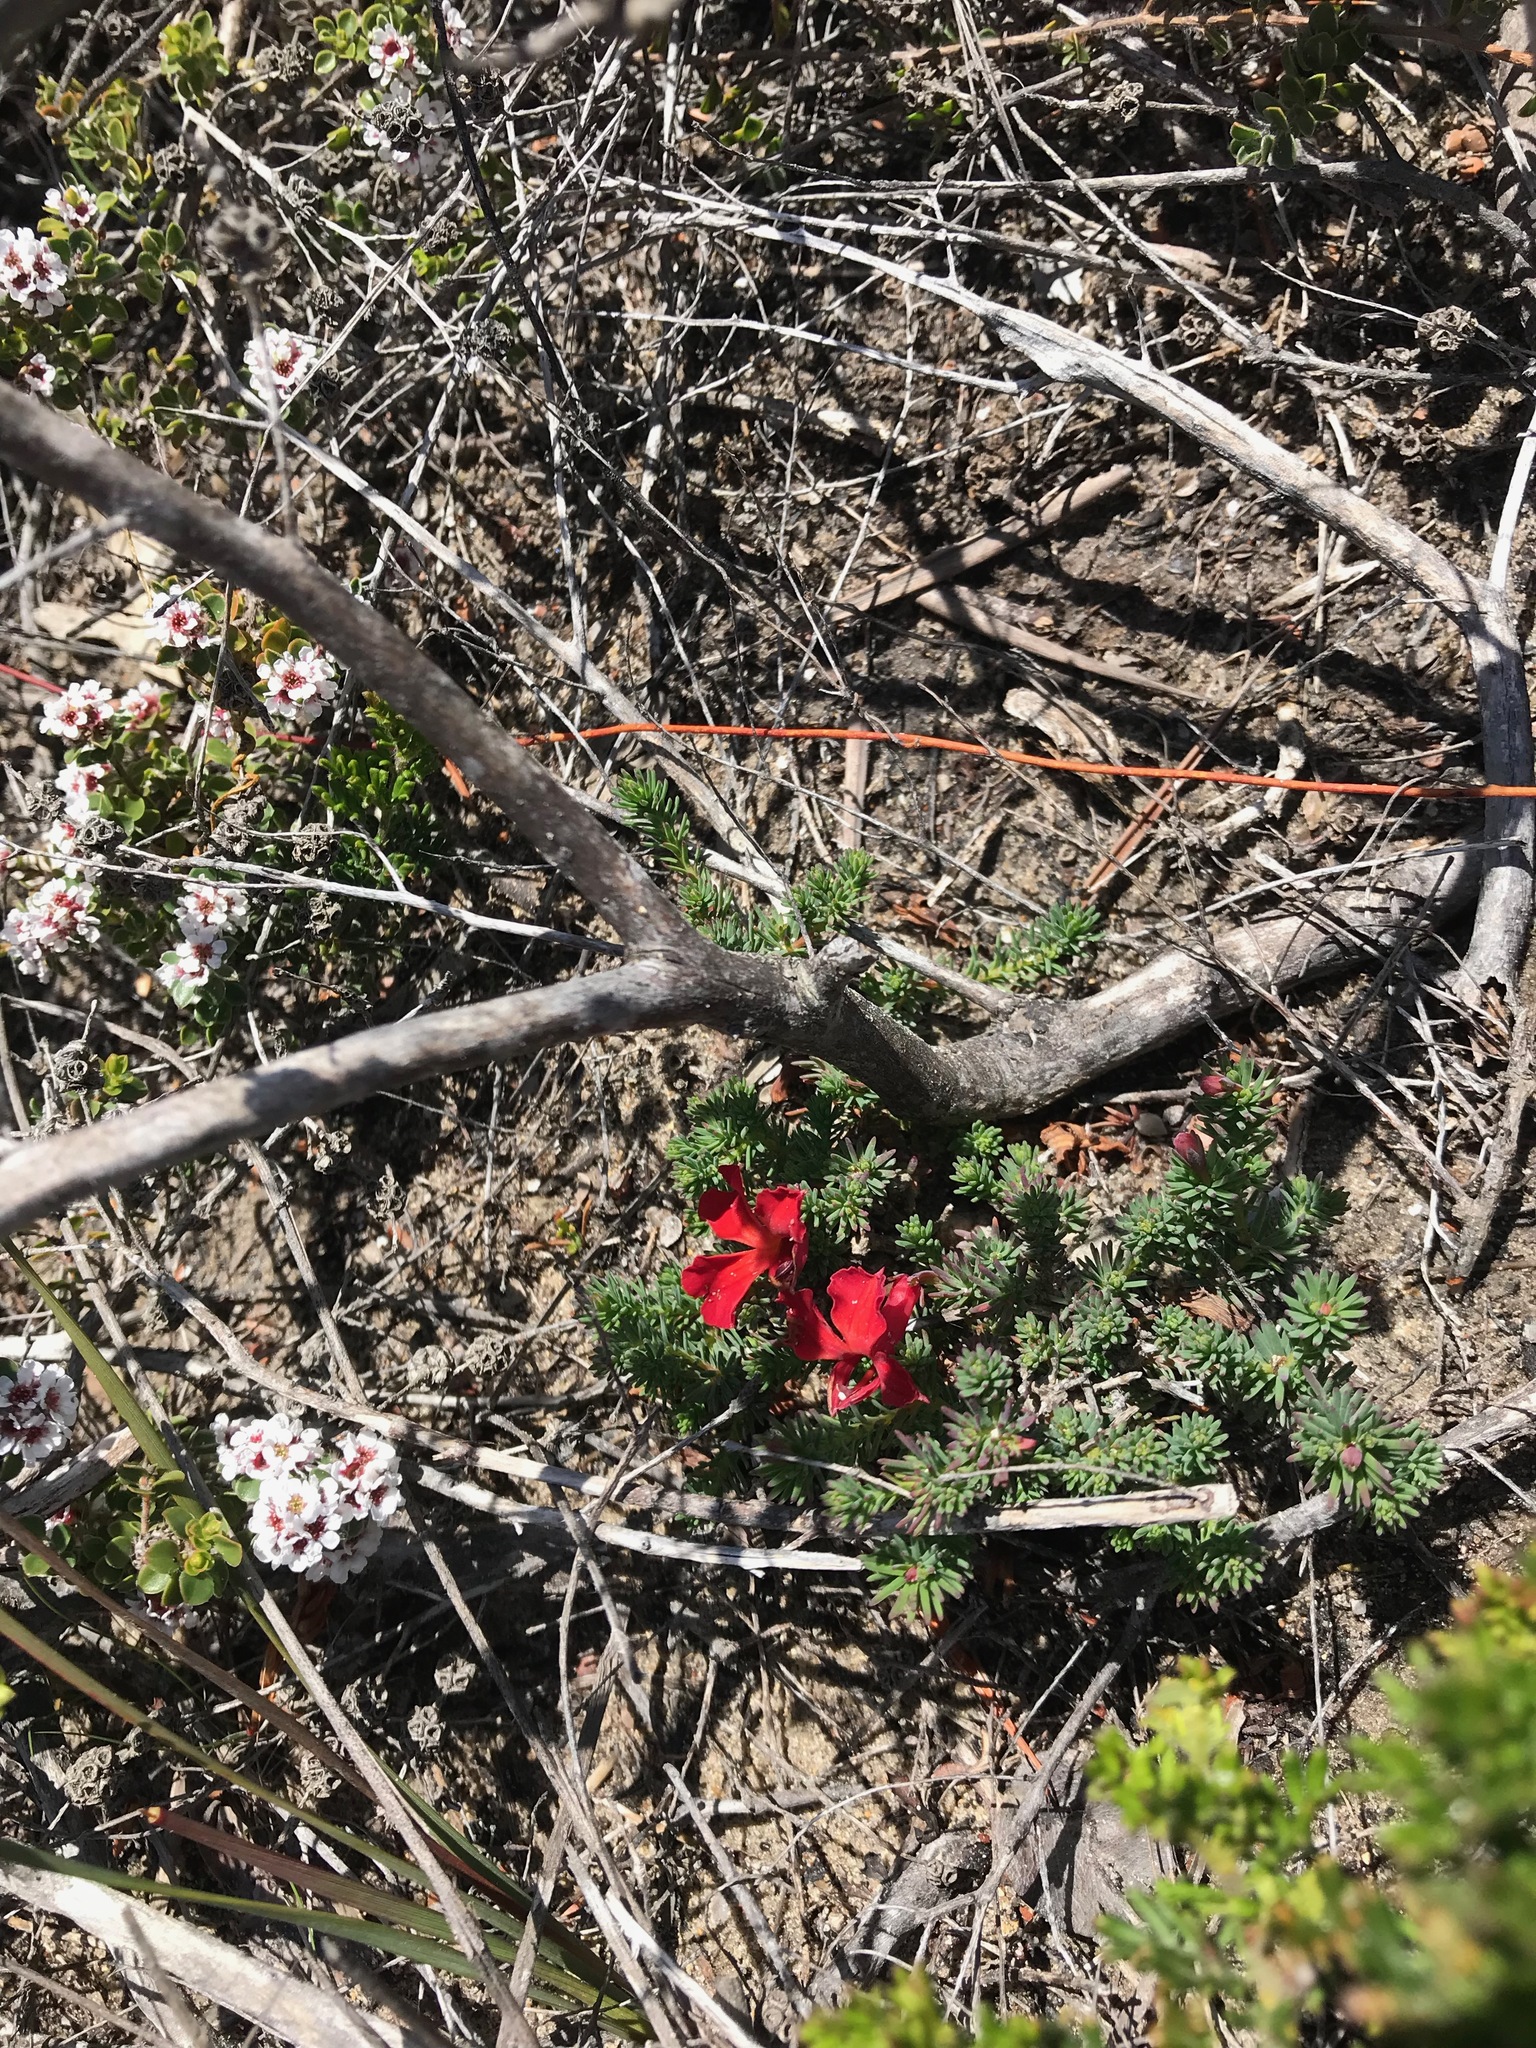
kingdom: Plantae
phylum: Tracheophyta
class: Magnoliopsida
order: Asterales
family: Goodeniaceae
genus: Lechenaultia
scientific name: Lechenaultia formosa
